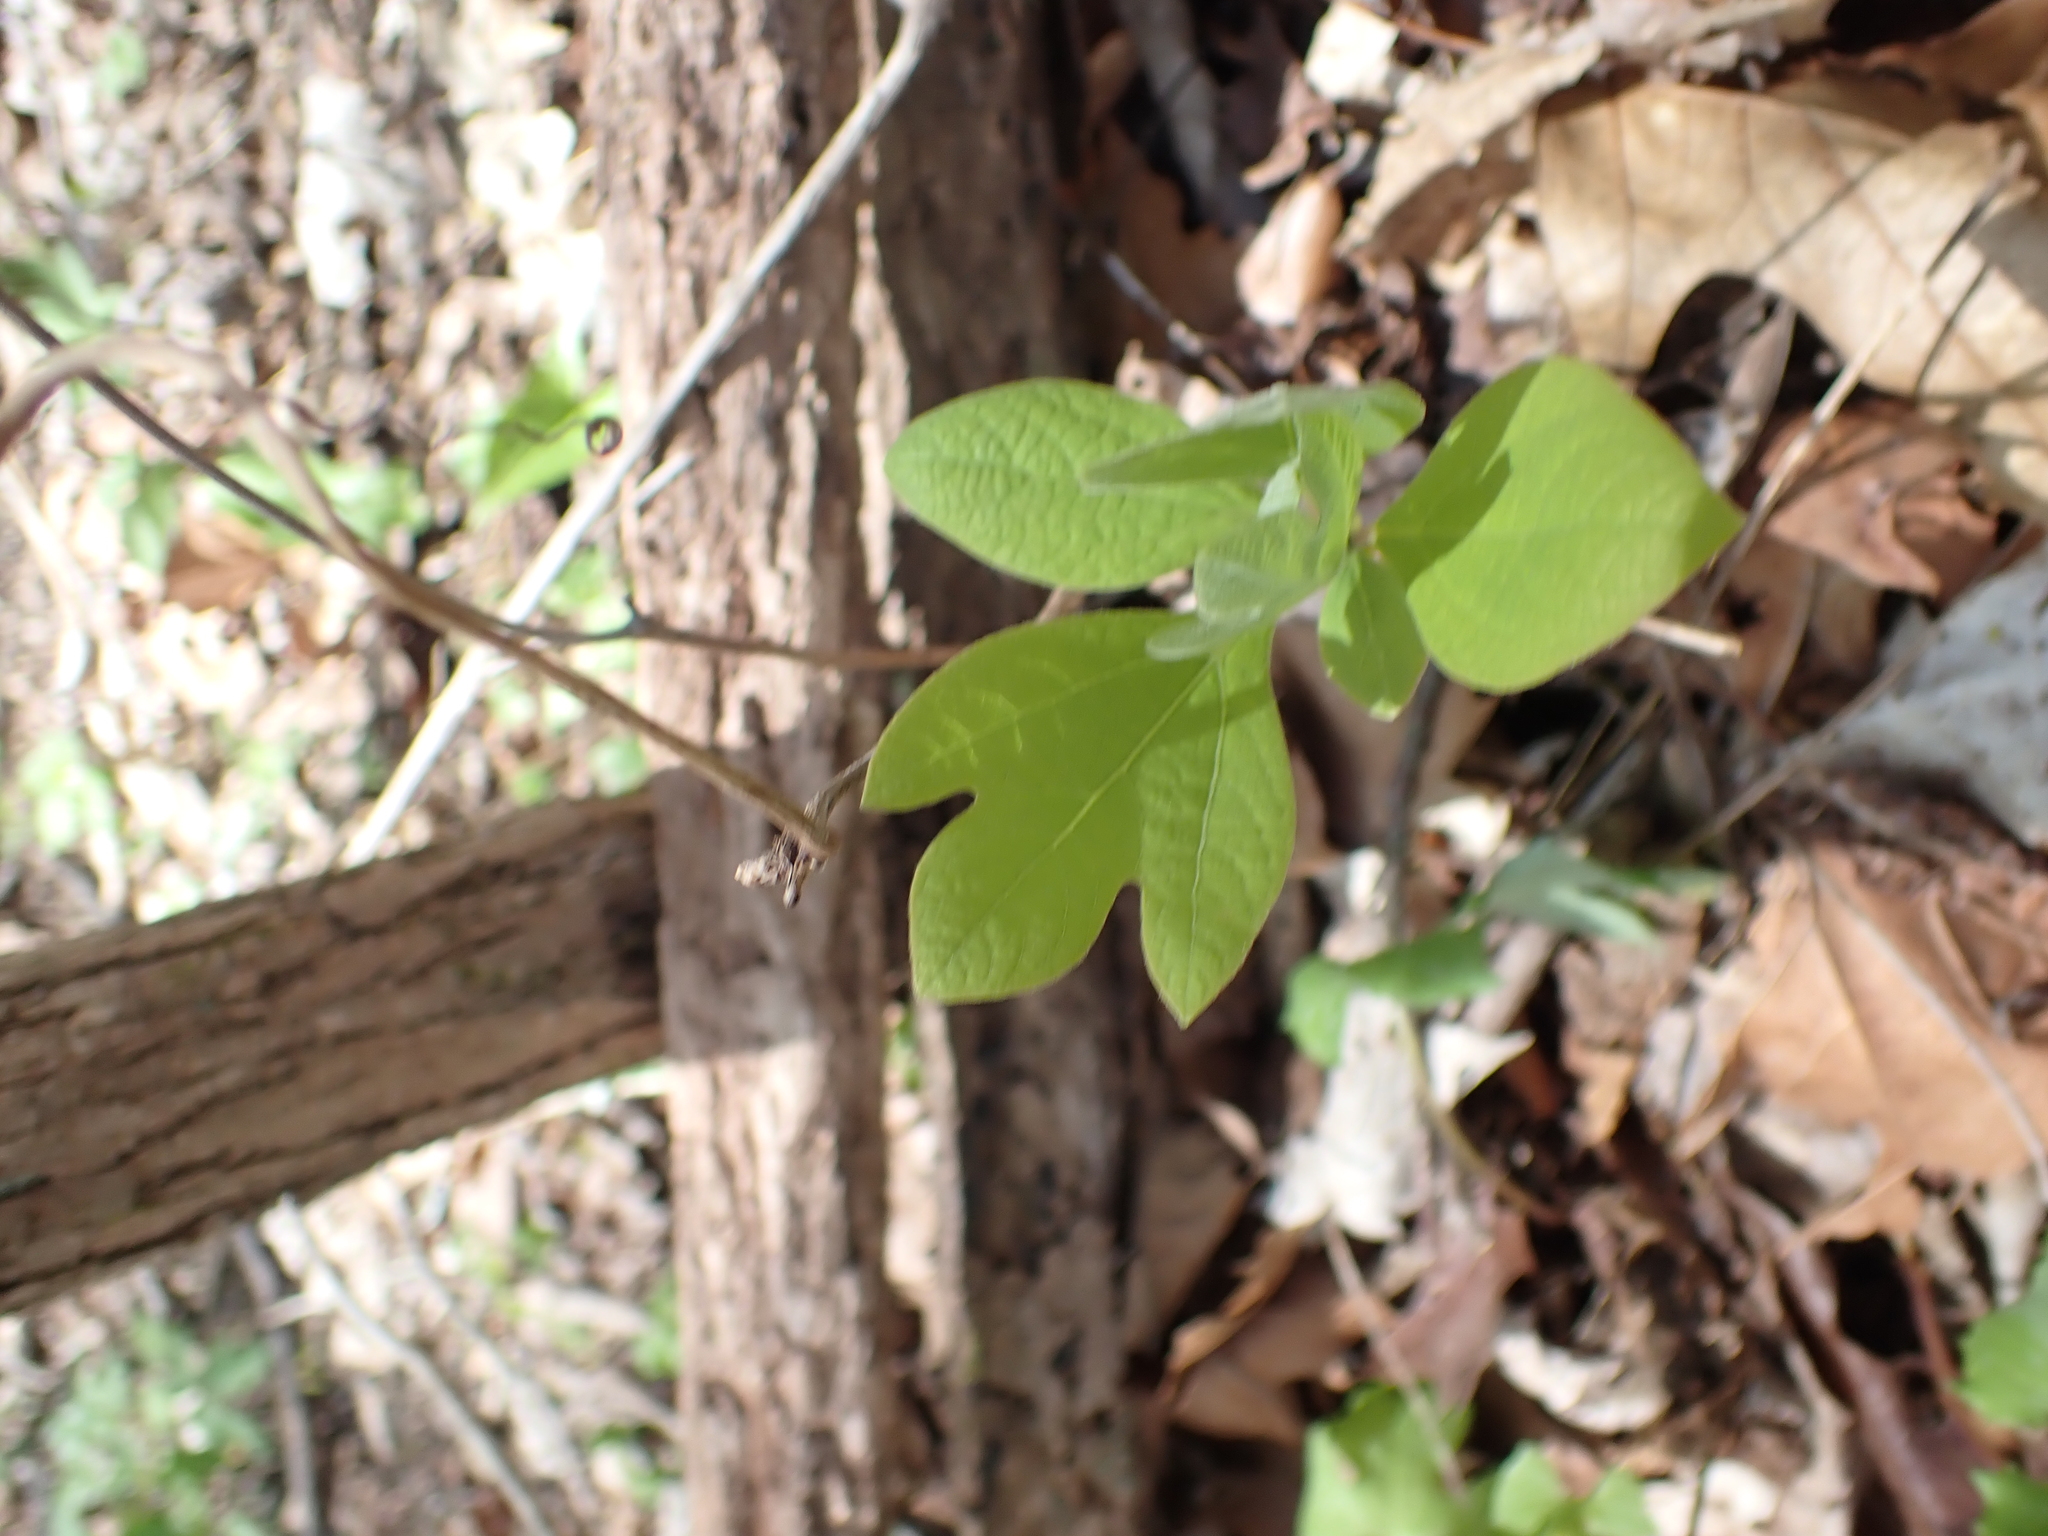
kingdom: Plantae
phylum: Tracheophyta
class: Magnoliopsida
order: Laurales
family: Lauraceae
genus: Sassafras
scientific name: Sassafras albidum
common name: Sassafras
